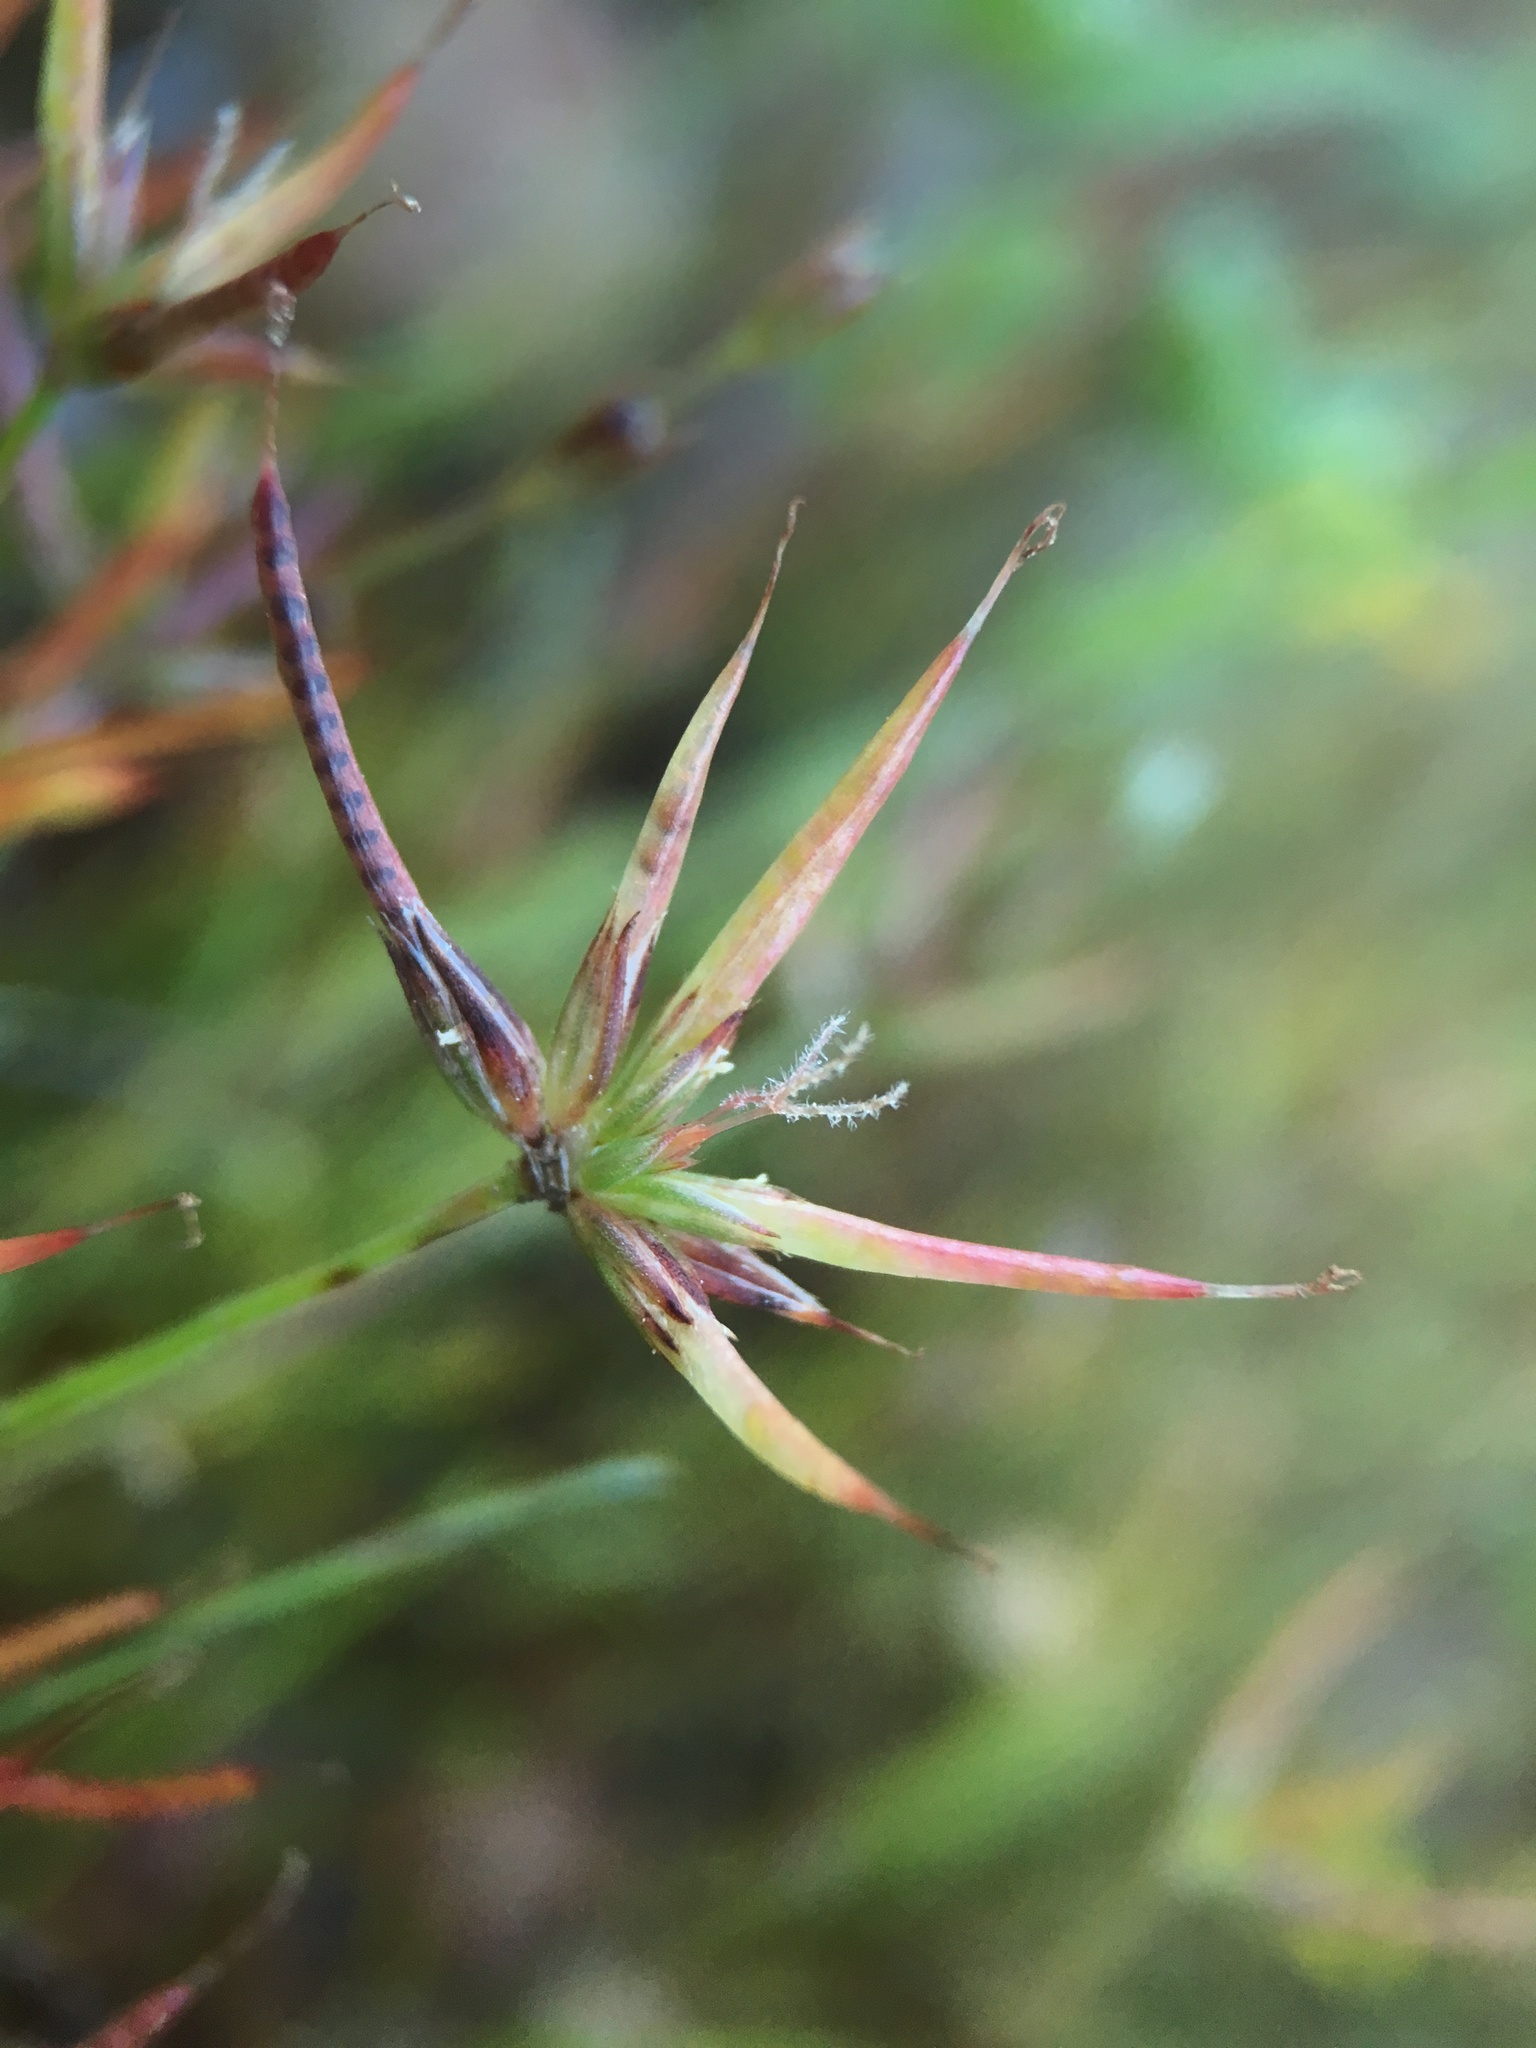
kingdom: Plantae
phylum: Tracheophyta
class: Liliopsida
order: Poales
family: Juncaceae
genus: Juncus
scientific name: Juncus digitatus
